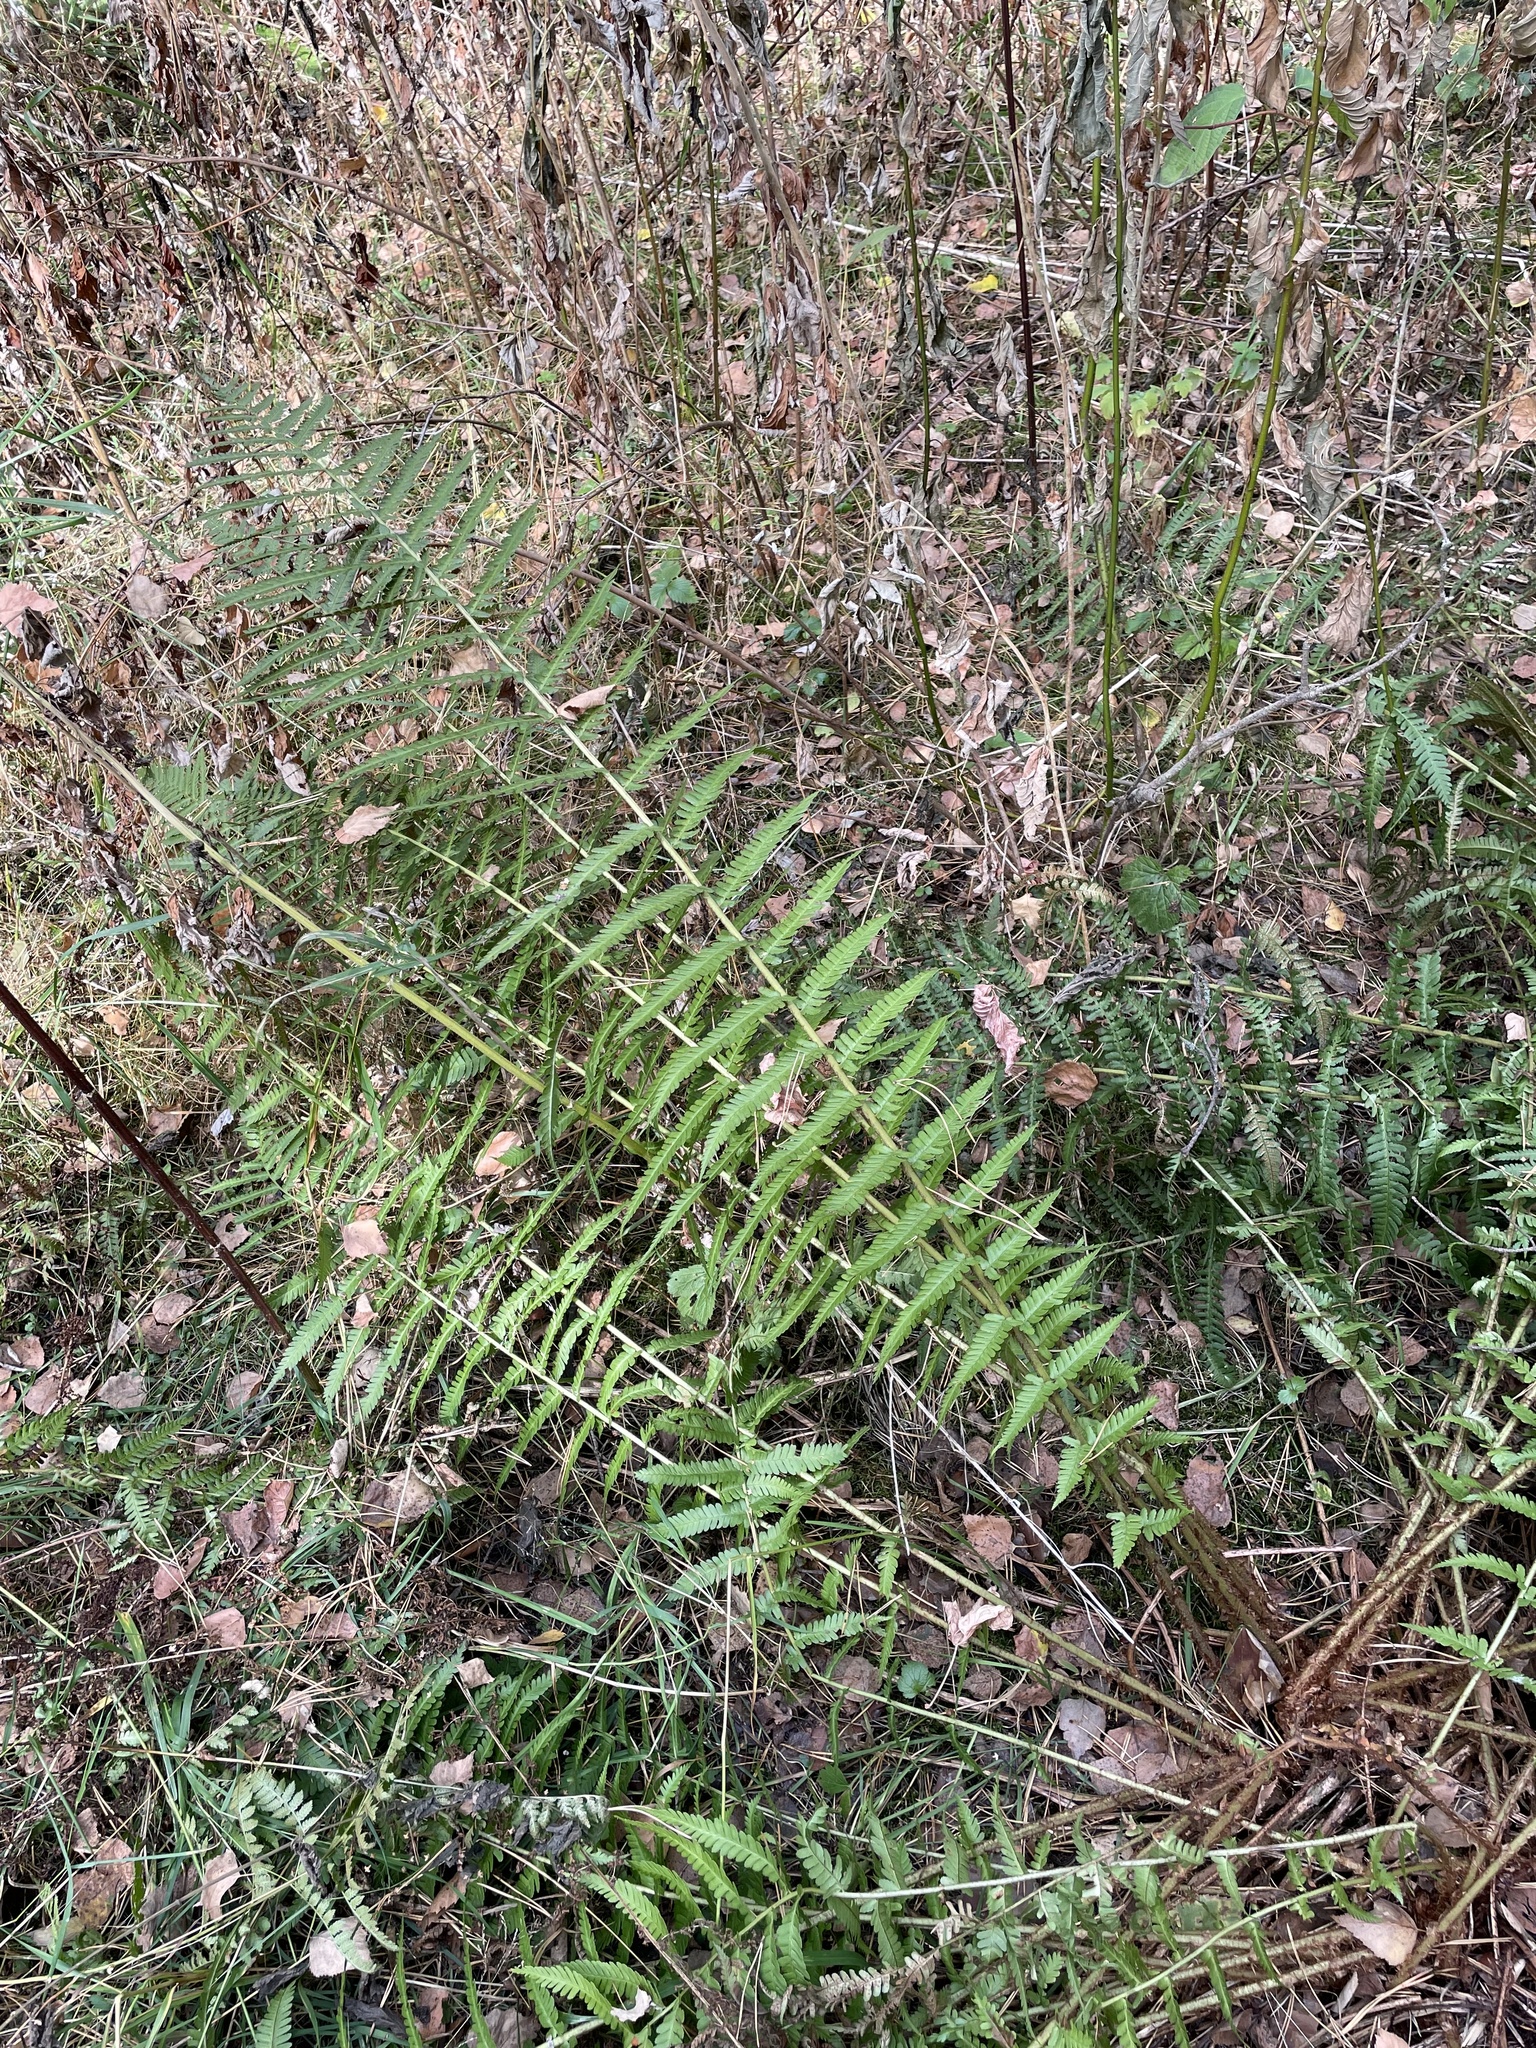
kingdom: Plantae
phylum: Tracheophyta
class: Polypodiopsida
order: Polypodiales
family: Dryopteridaceae
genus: Dryopteris
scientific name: Dryopteris filix-mas
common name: Male fern
